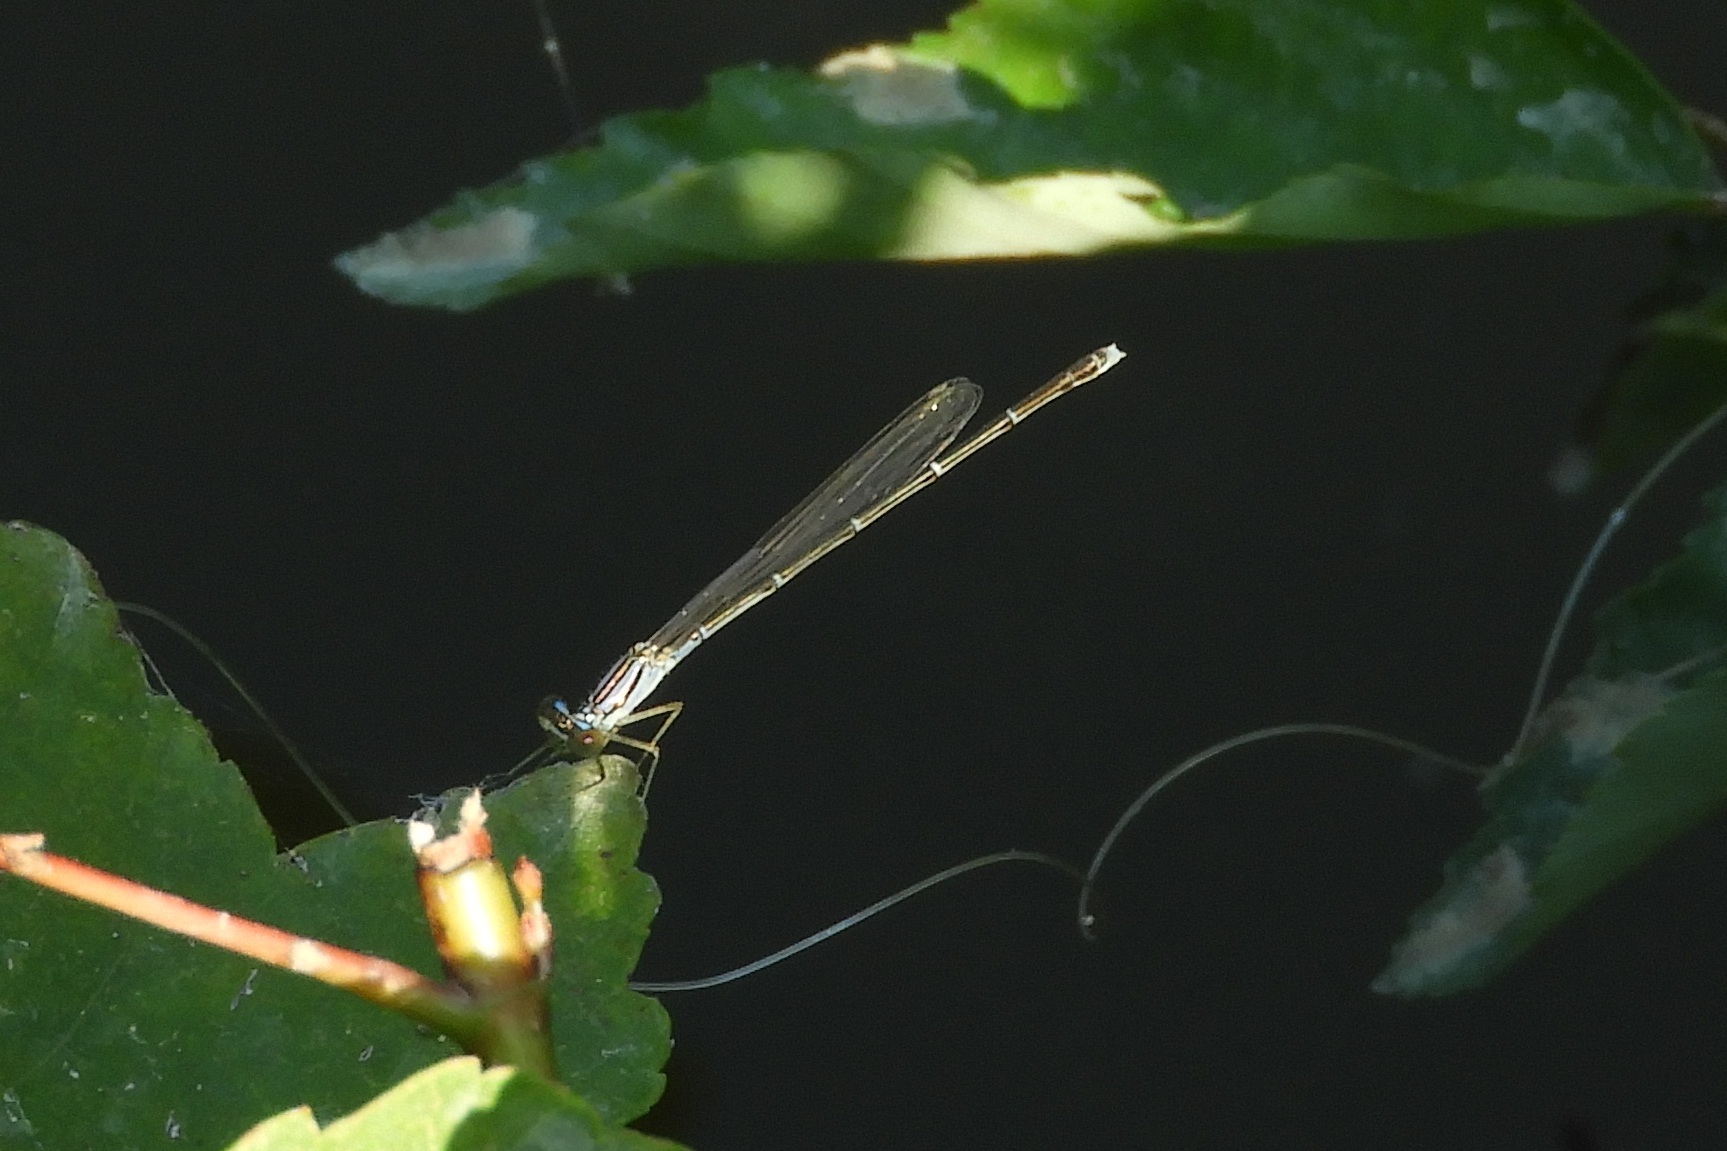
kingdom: Animalia
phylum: Arthropoda
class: Insecta
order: Odonata
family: Coenagrionidae
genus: Enallagma
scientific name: Enallagma signatum
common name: Orange bluet
